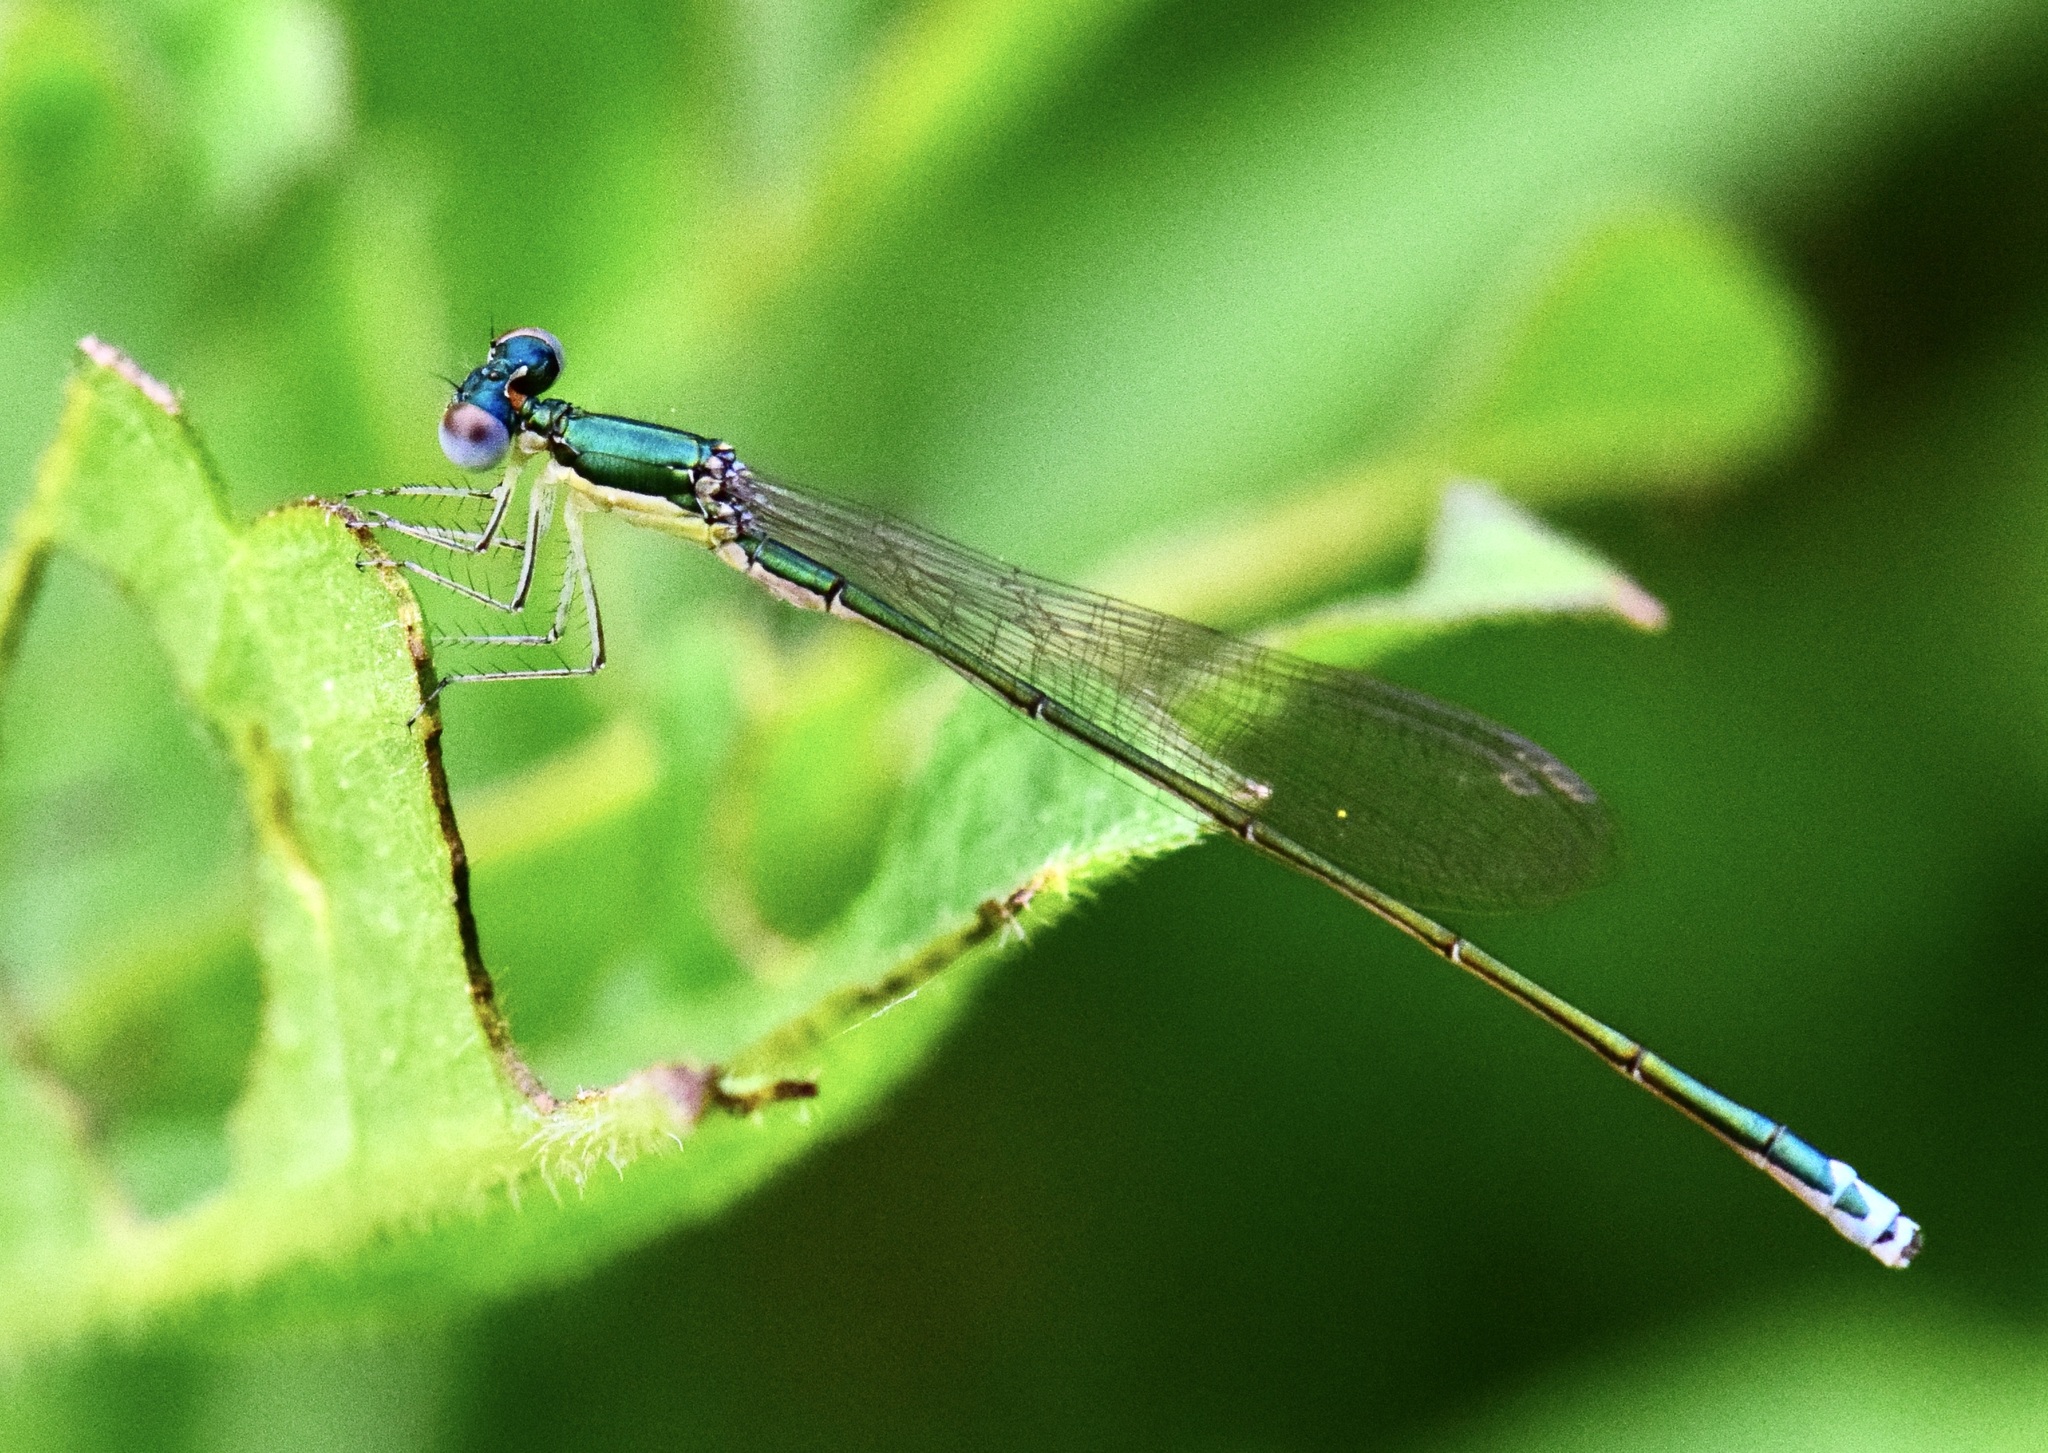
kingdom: Animalia
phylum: Arthropoda
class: Insecta
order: Odonata
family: Coenagrionidae
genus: Nehalennia
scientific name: Nehalennia irene
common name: Sedge sprite
